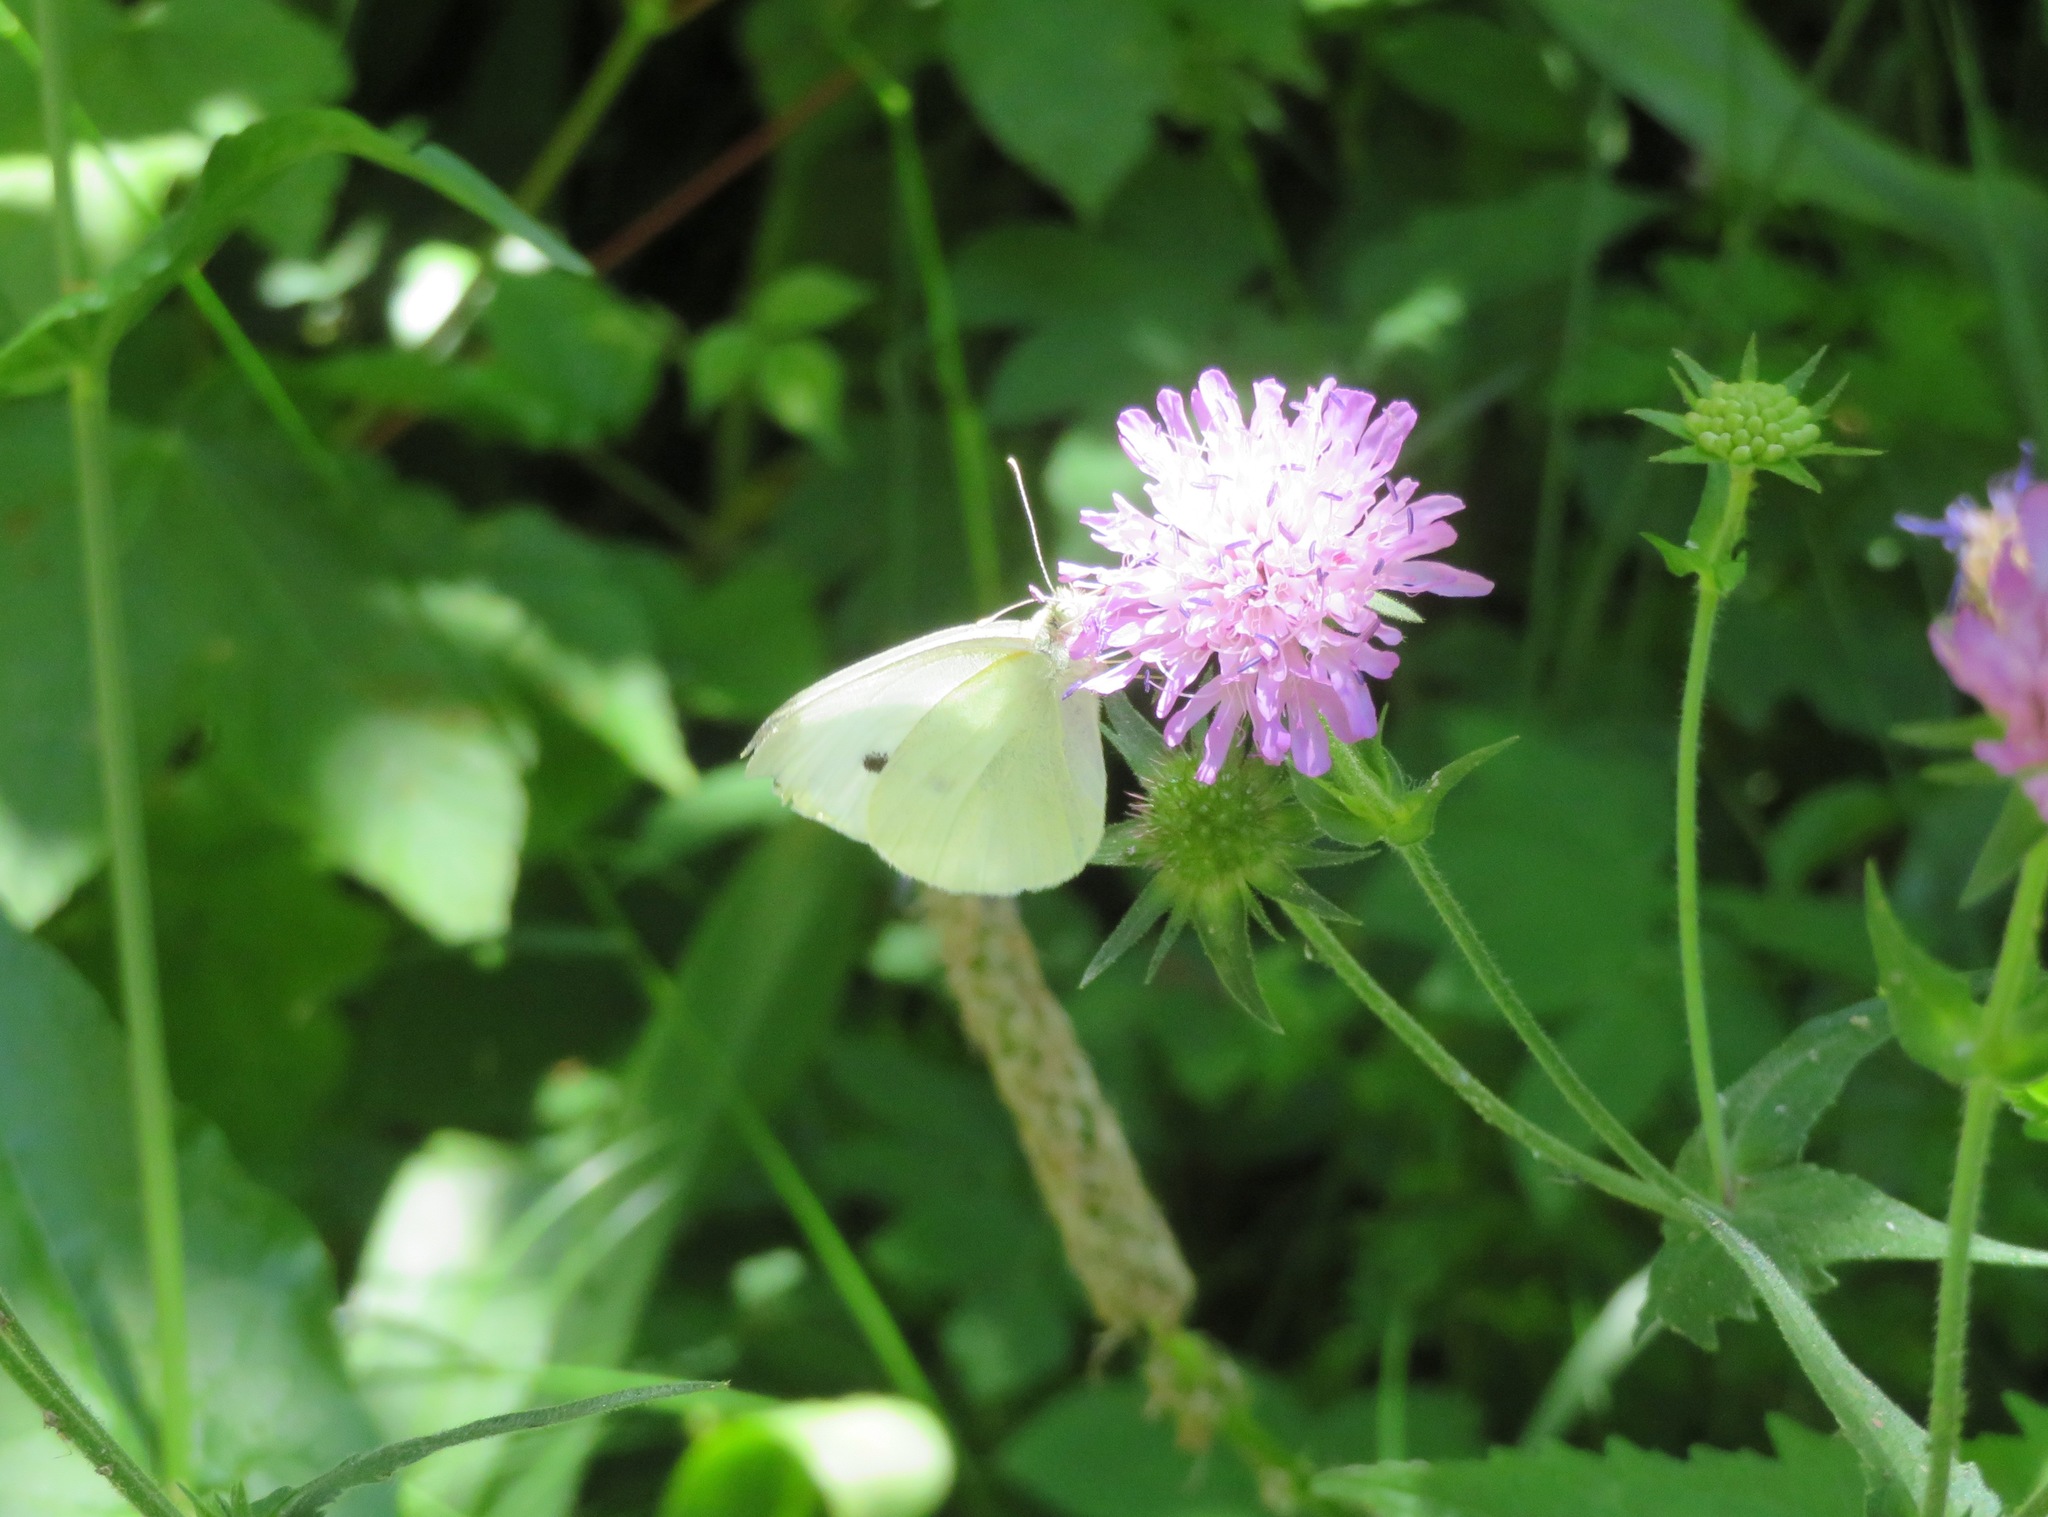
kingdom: Animalia
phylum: Arthropoda
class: Insecta
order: Lepidoptera
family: Pieridae
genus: Pieris
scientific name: Pieris rapae
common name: Small white
